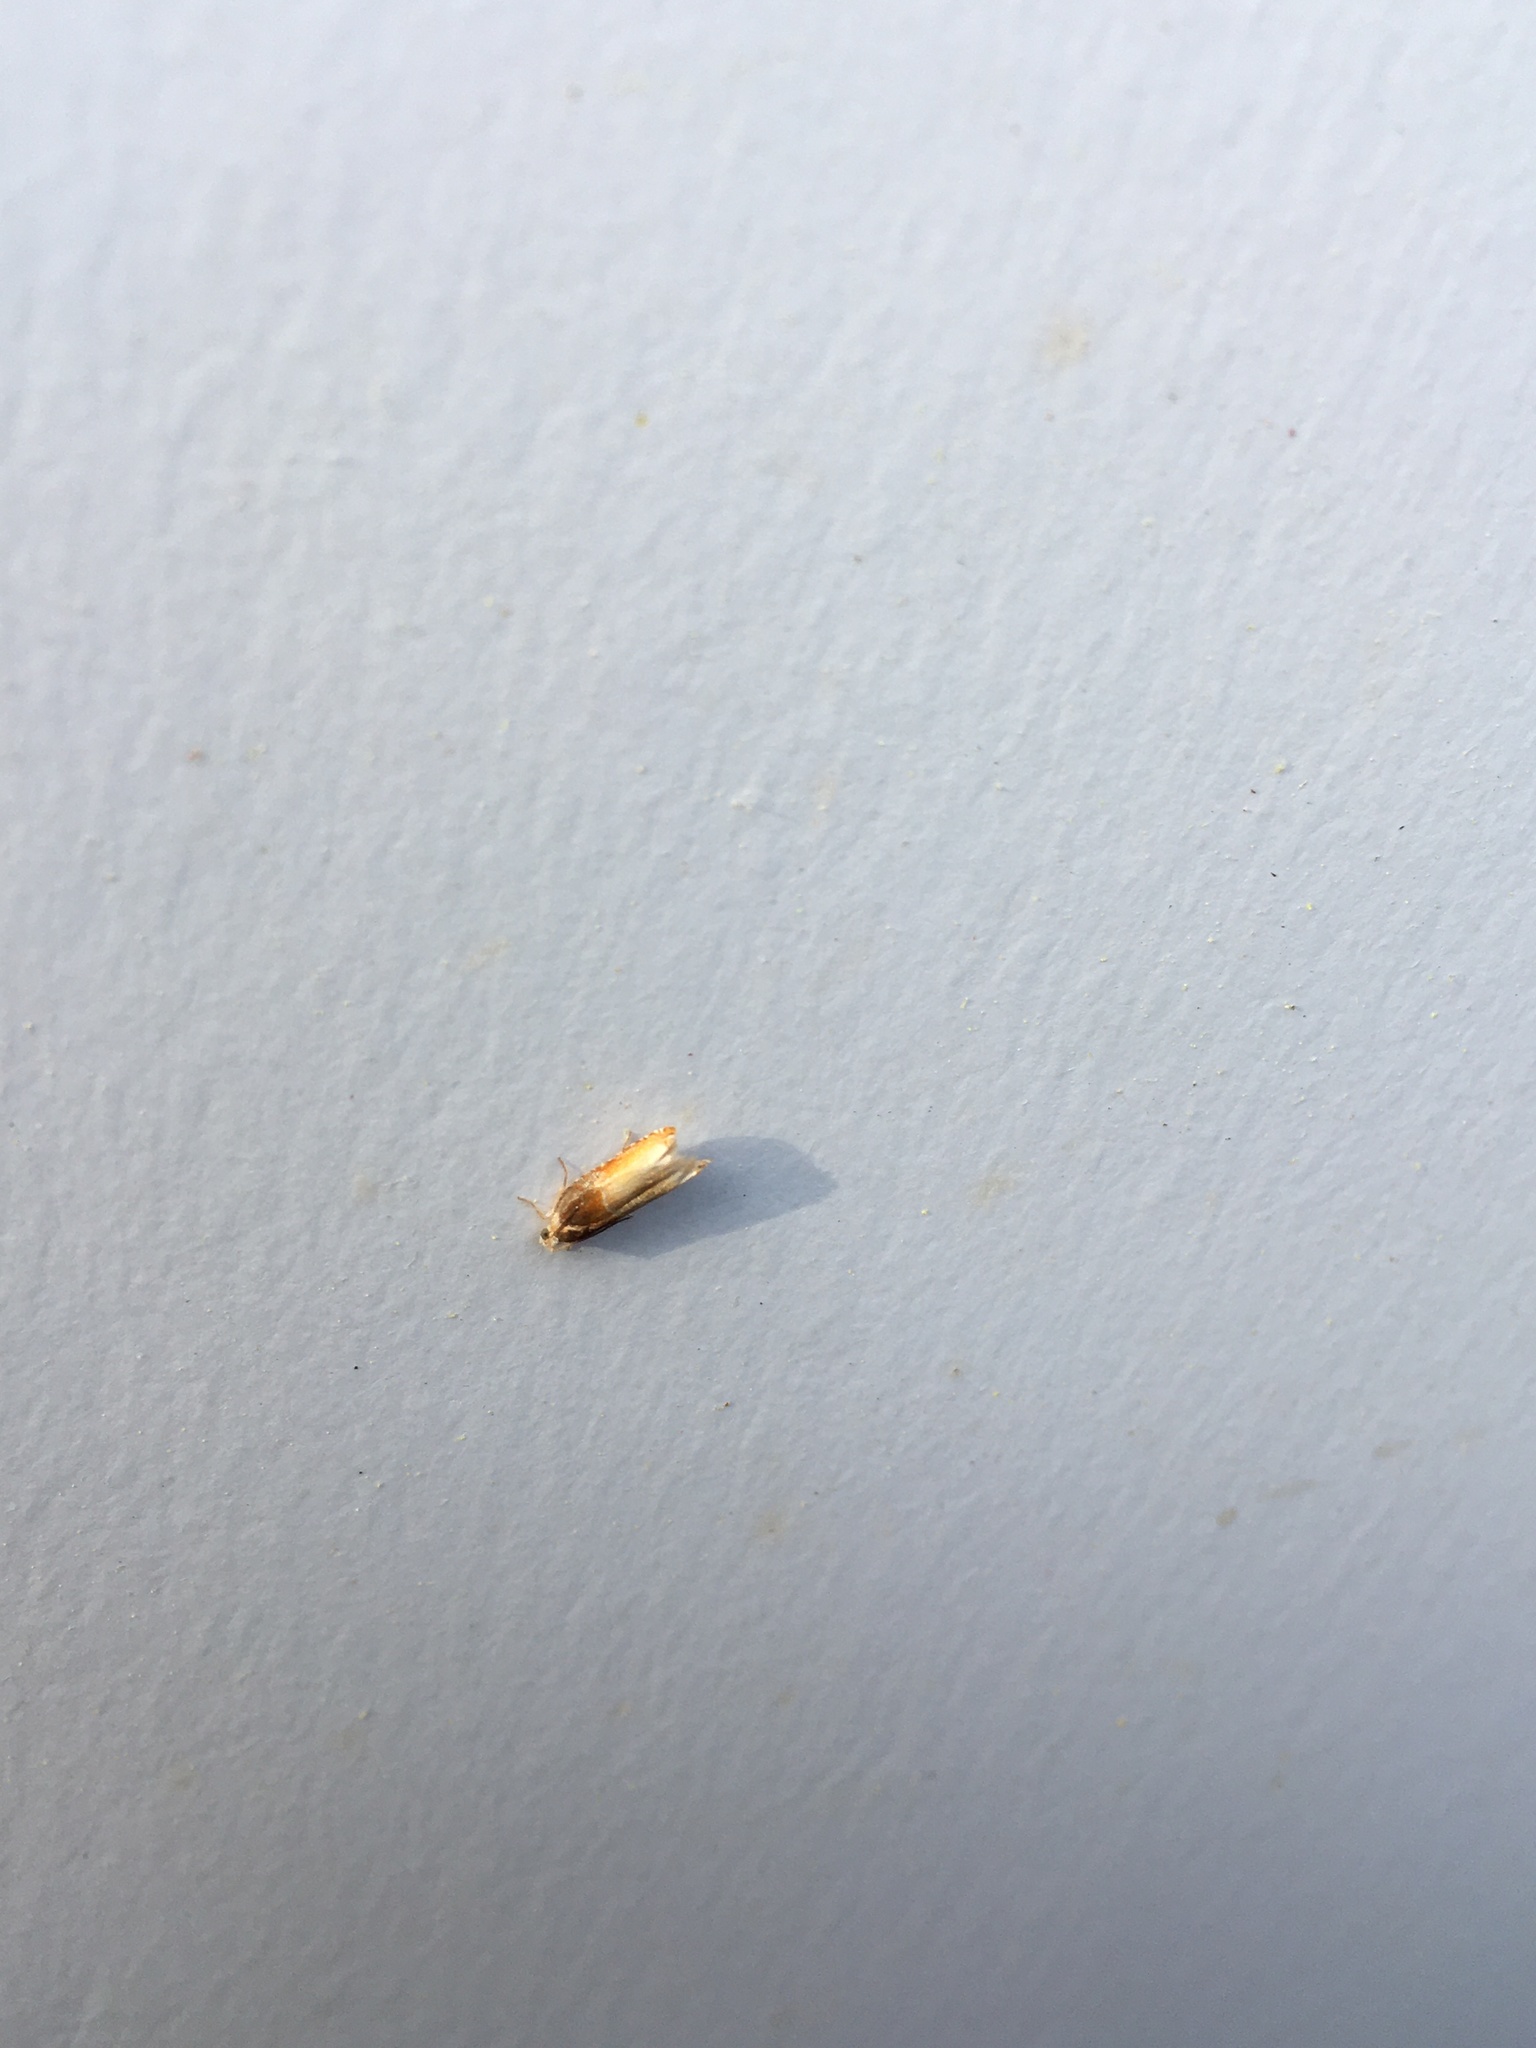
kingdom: Animalia
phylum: Arthropoda
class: Insecta
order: Lepidoptera
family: Tortricidae
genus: Ancylis
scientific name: Ancylis divisana
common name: Two-toned ancylis moth
